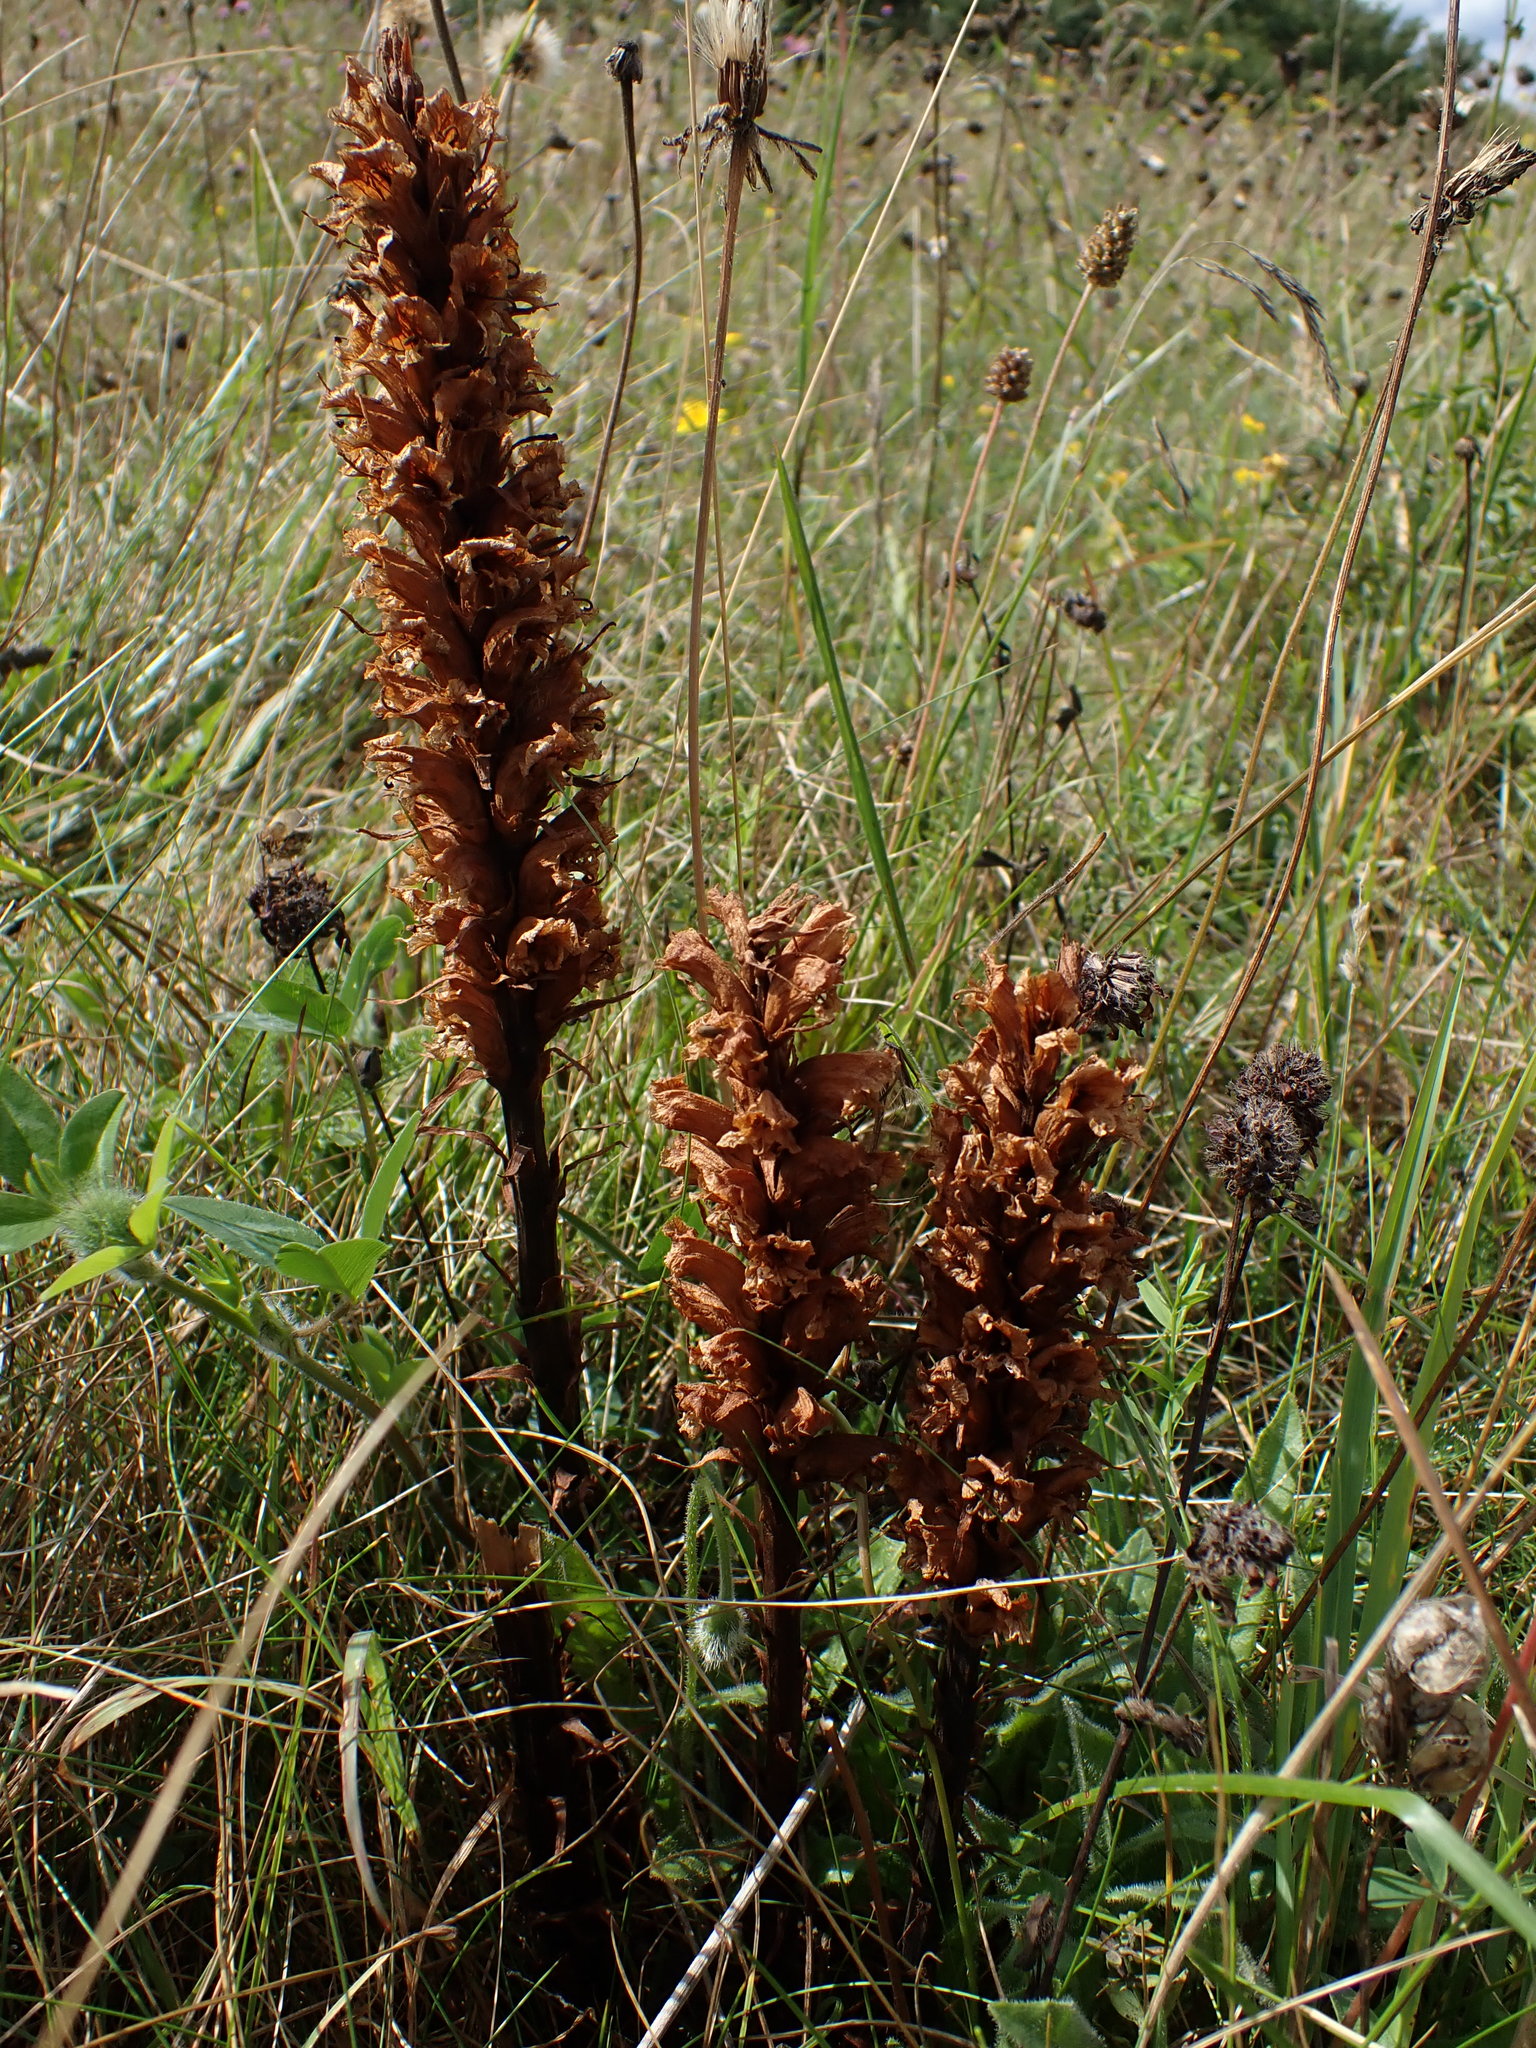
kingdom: Plantae
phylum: Tracheophyta
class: Magnoliopsida
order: Lamiales
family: Orobanchaceae
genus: Orobanche
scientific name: Orobanche elatior
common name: Knapweed broomrape
